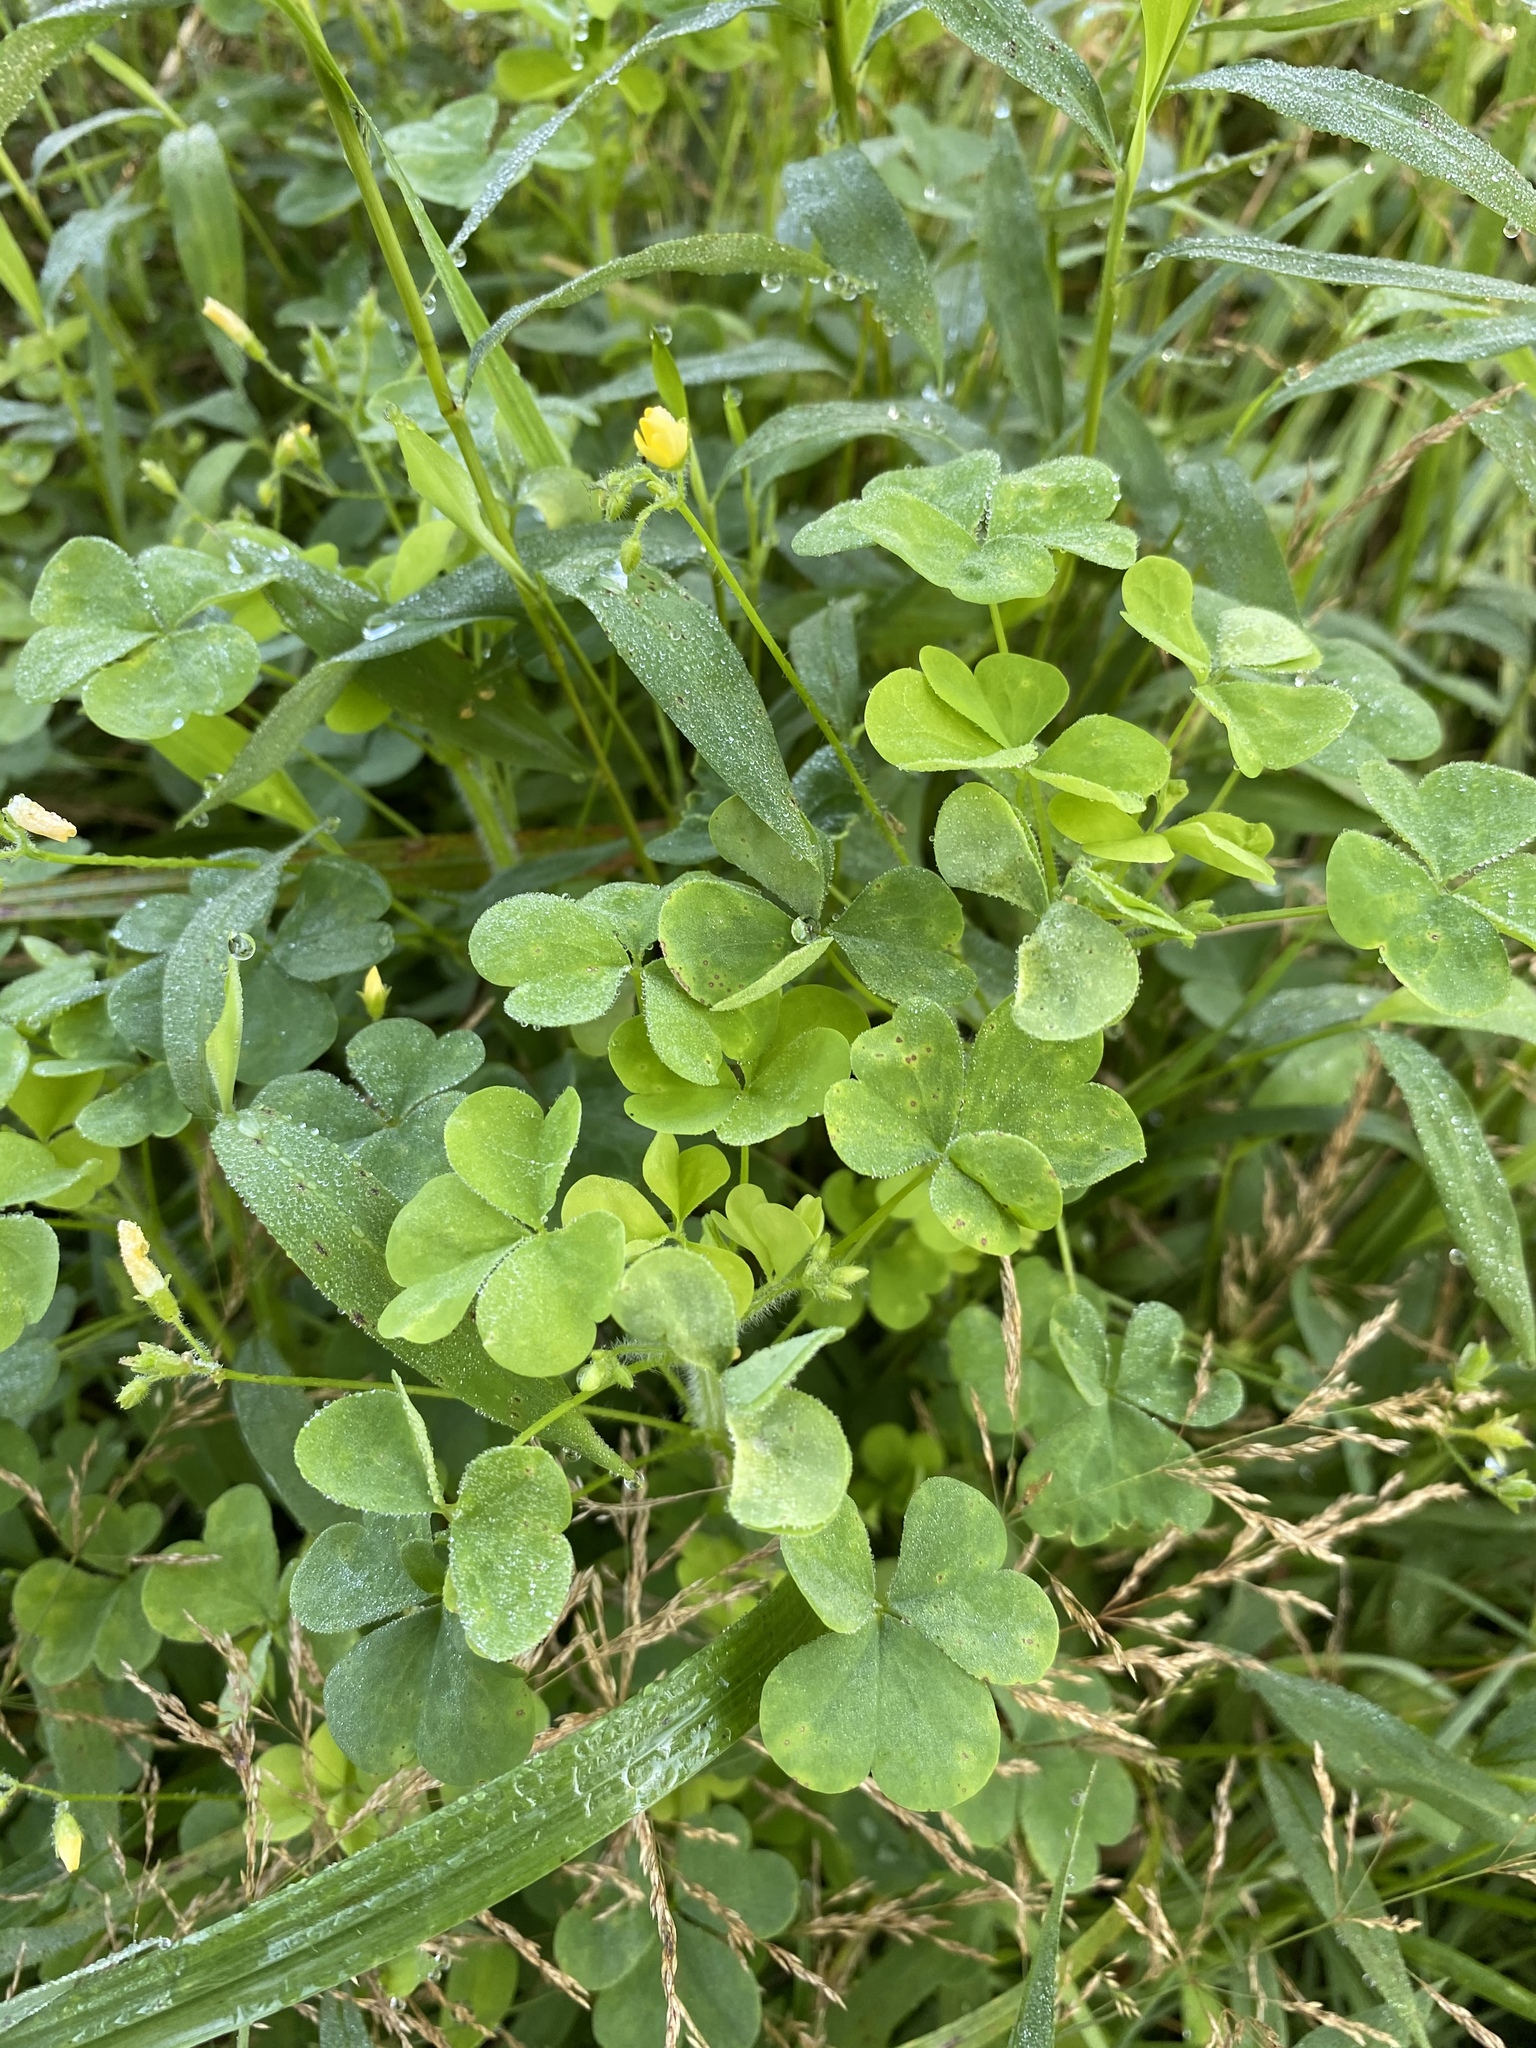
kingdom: Plantae
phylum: Tracheophyta
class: Magnoliopsida
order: Oxalidales
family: Oxalidaceae
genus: Oxalis
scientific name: Oxalis stricta
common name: Upright yellow-sorrel
